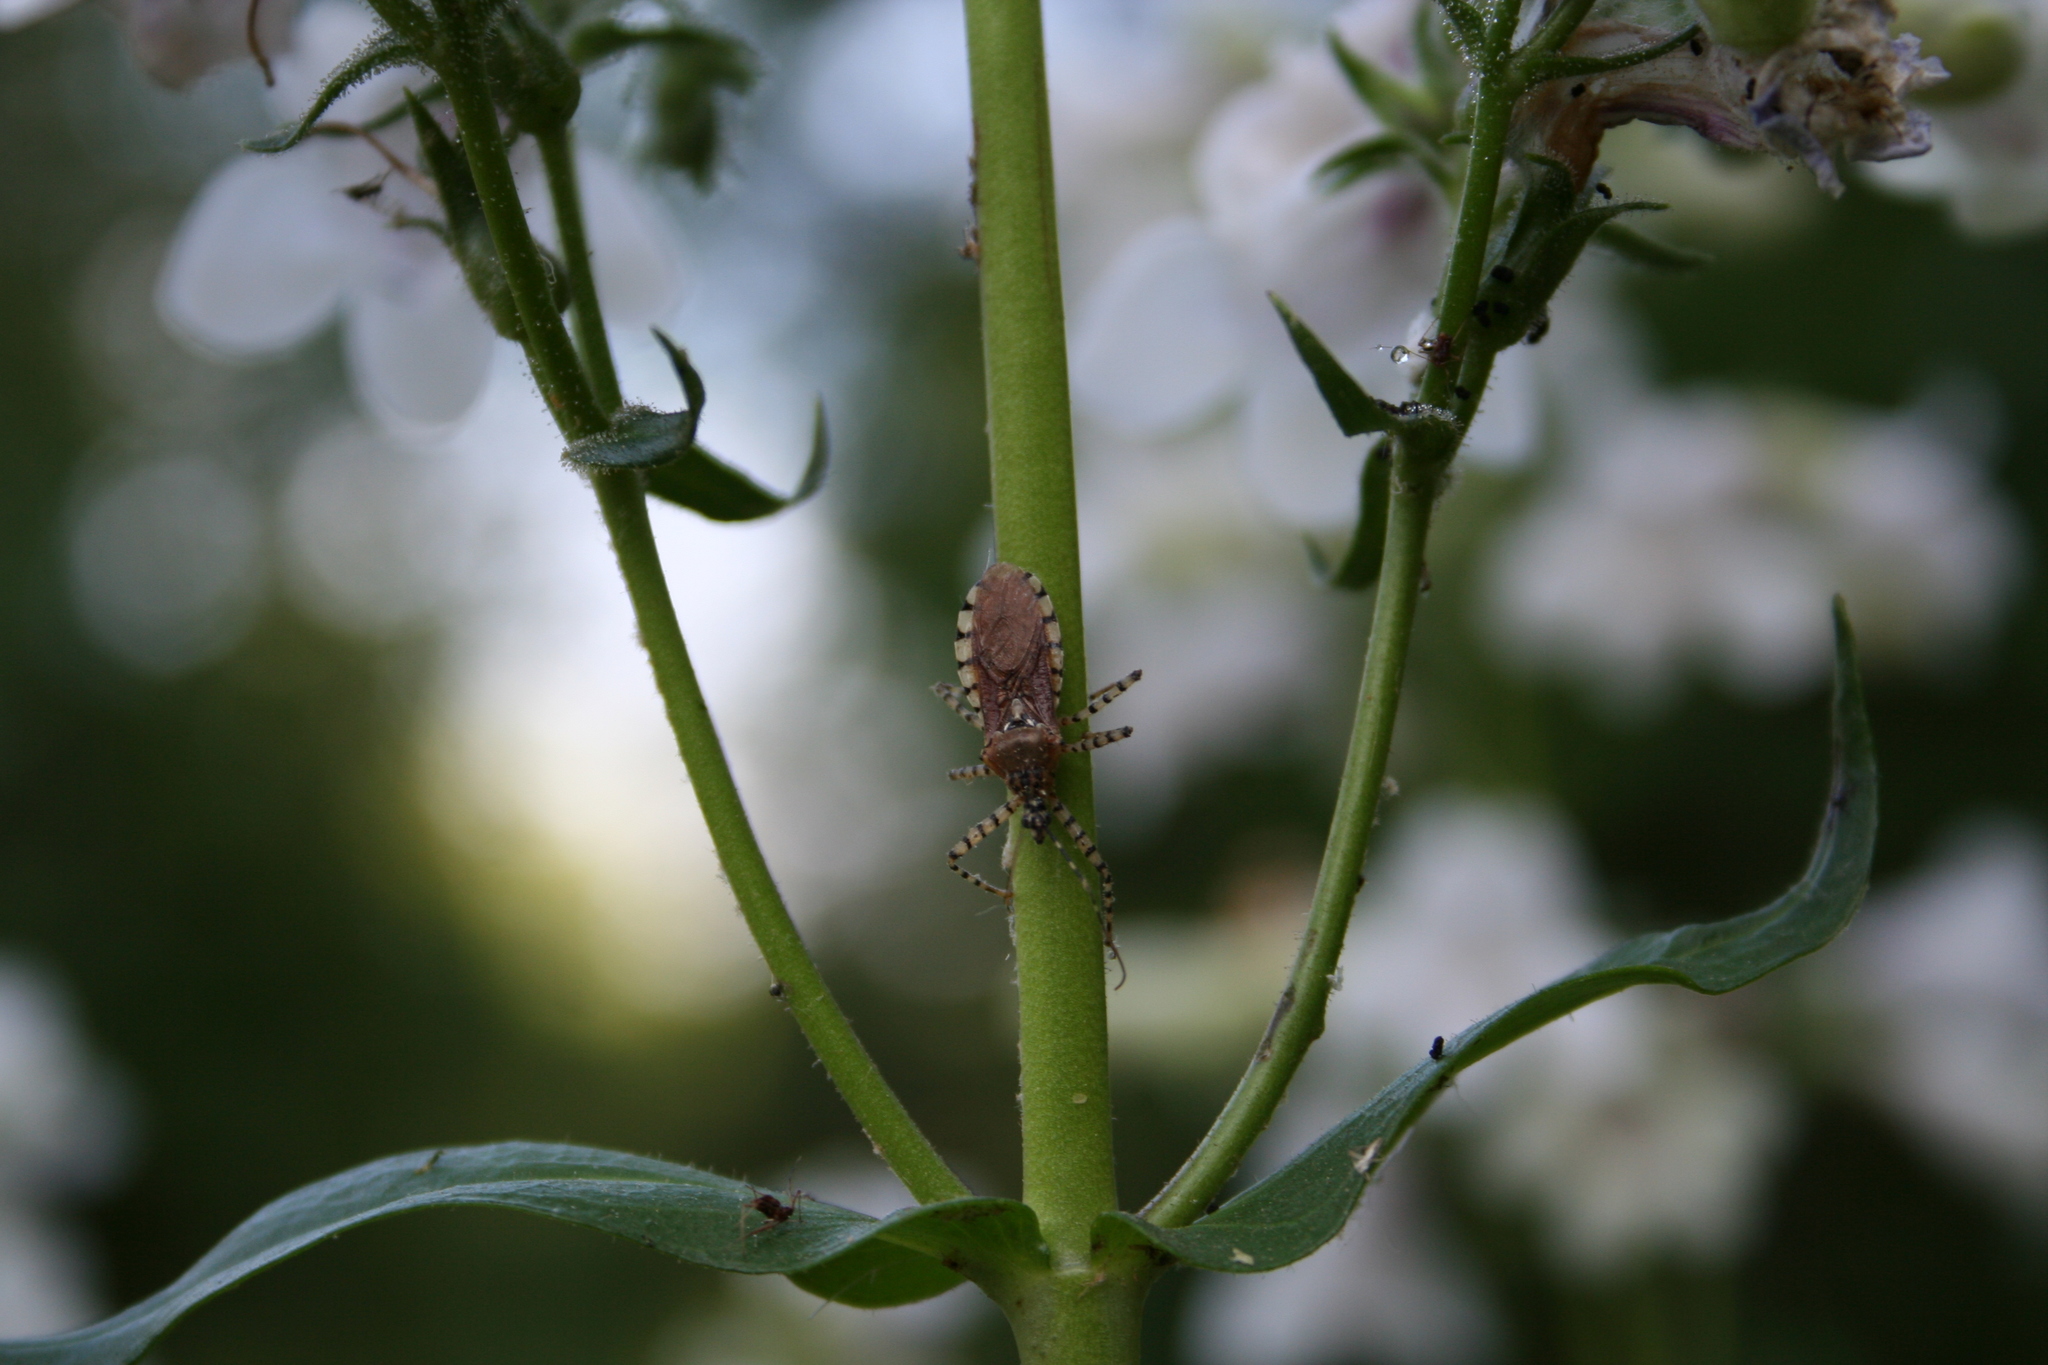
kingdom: Animalia
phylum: Arthropoda
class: Insecta
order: Hemiptera
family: Reduviidae
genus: Pselliopus
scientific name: Pselliopus cinctus
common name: Ringed assassin bug
